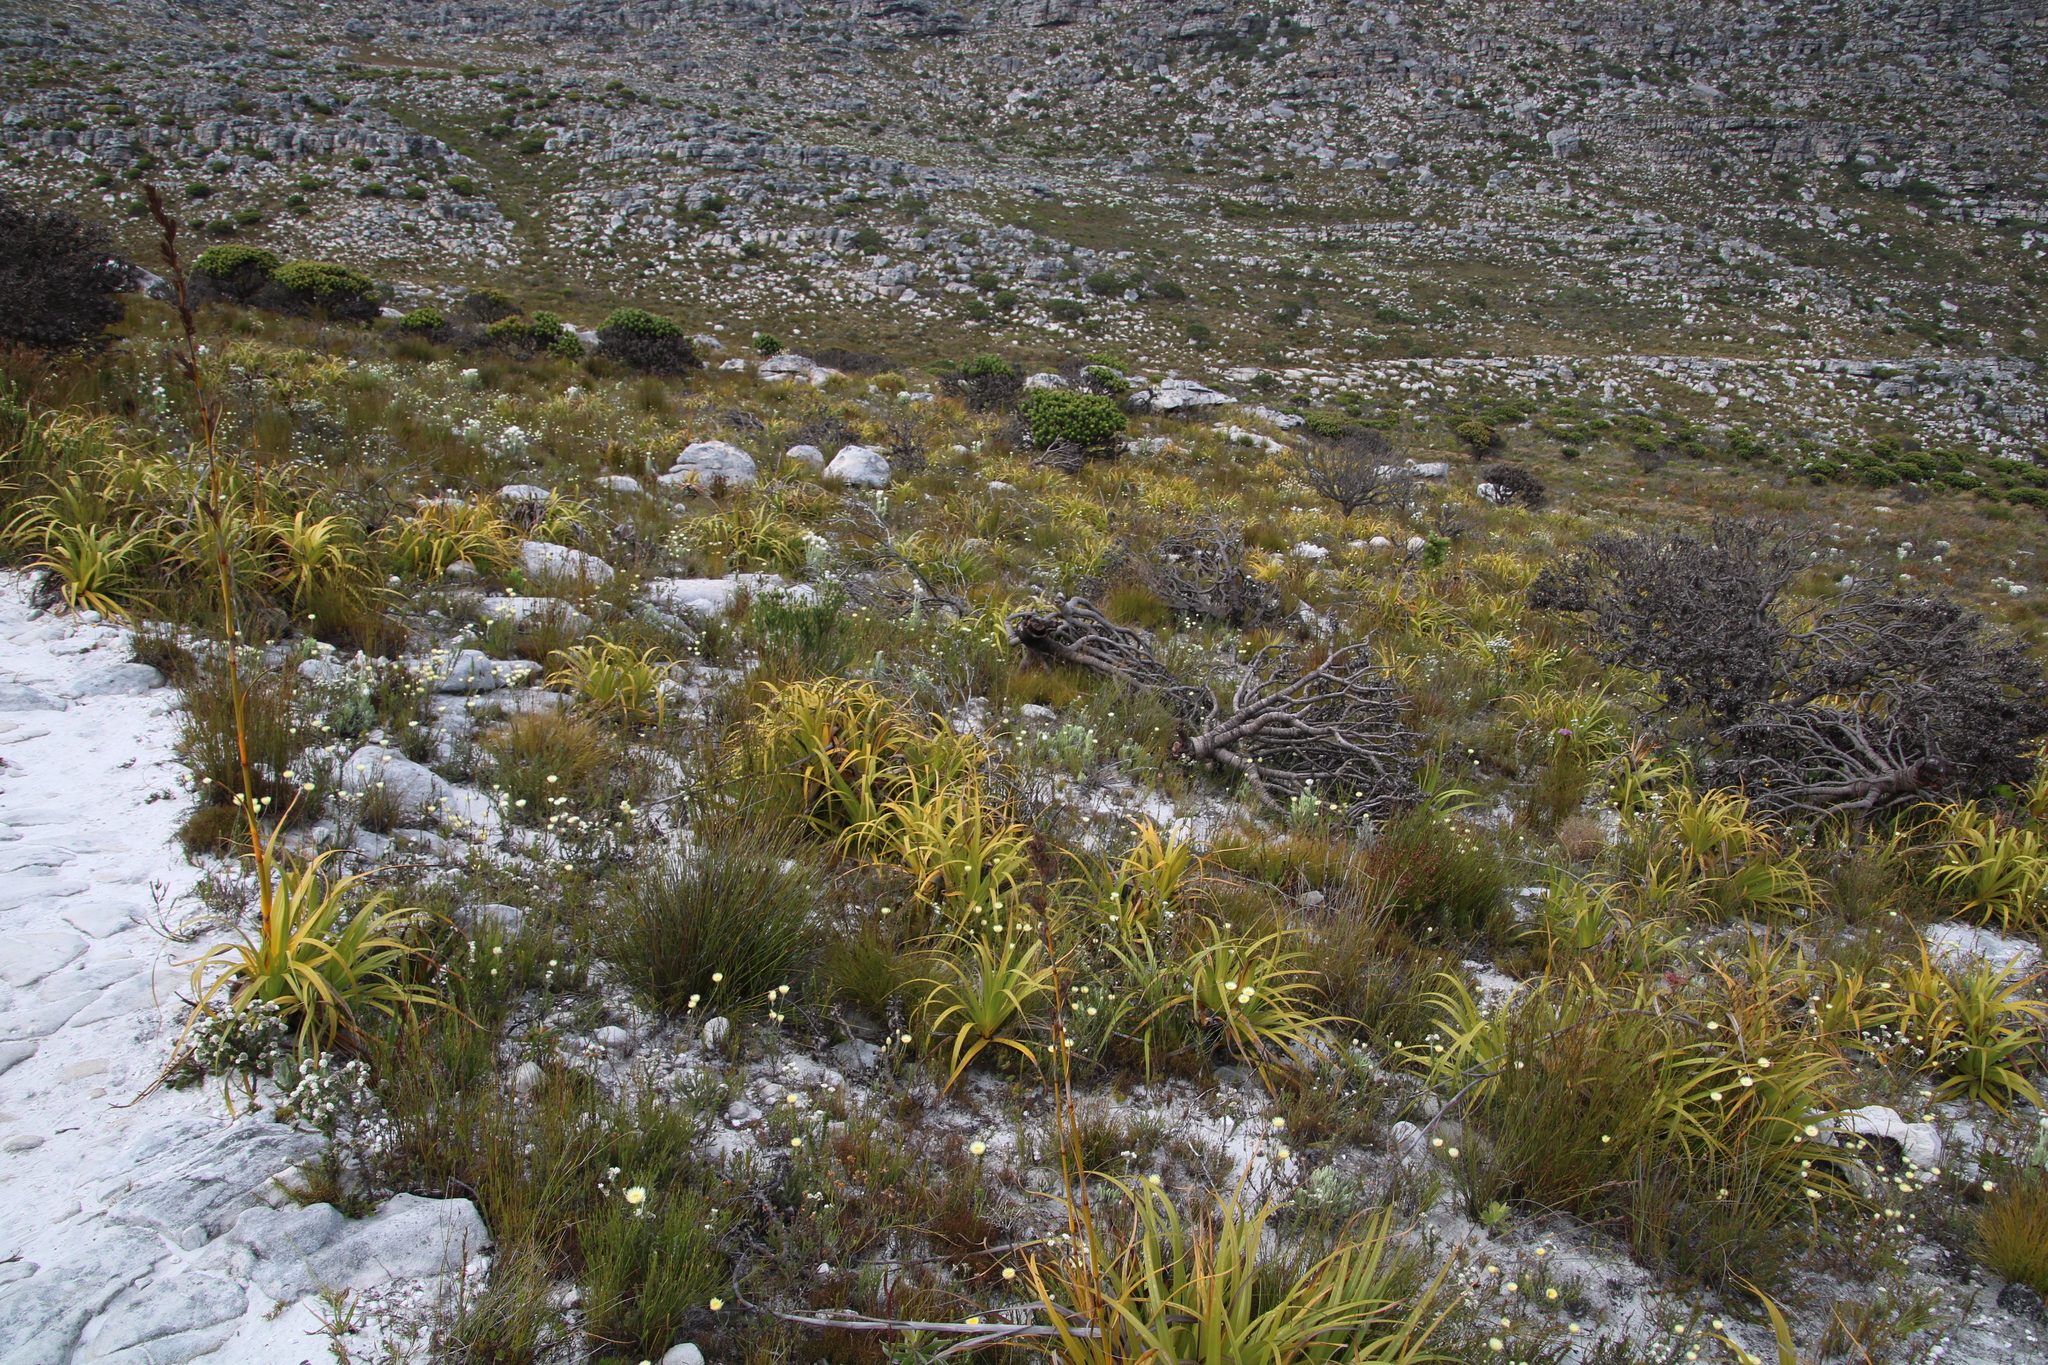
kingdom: Plantae
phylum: Tracheophyta
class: Liliopsida
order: Poales
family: Cyperaceae
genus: Tetraria
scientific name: Tetraria thermalis
